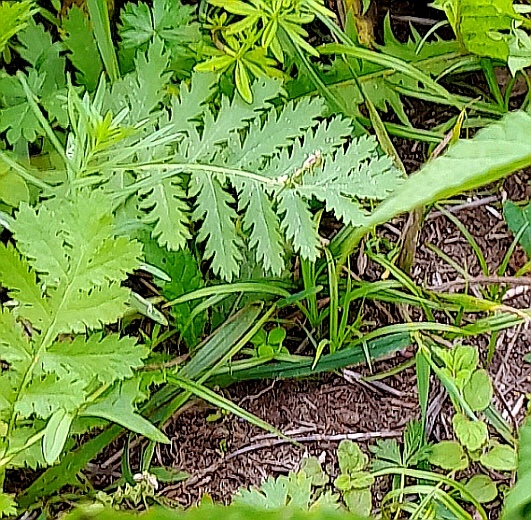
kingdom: Plantae
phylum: Tracheophyta
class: Magnoliopsida
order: Asterales
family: Asteraceae
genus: Tanacetum
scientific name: Tanacetum vulgare
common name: Common tansy
